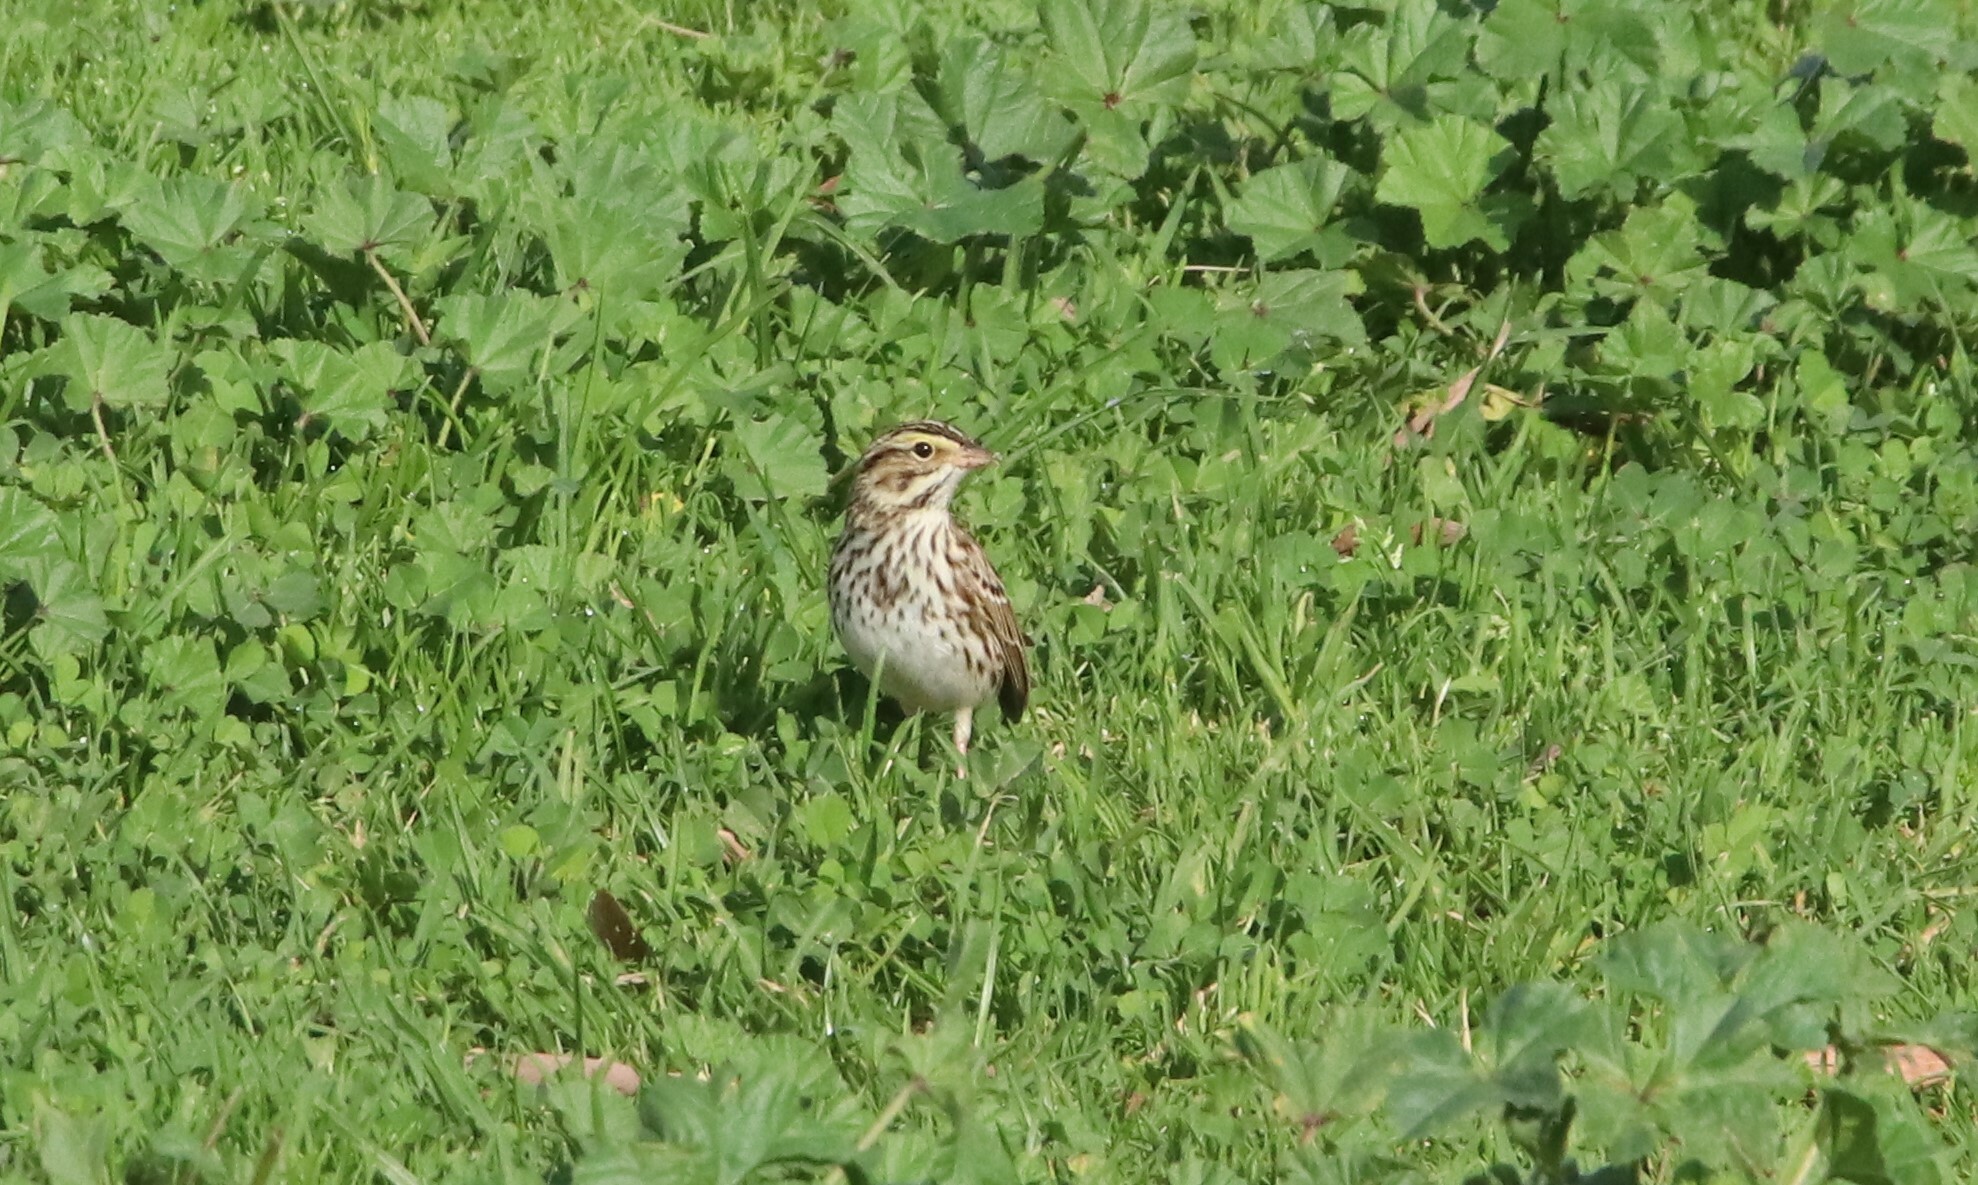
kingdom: Animalia
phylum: Chordata
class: Aves
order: Passeriformes
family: Passerellidae
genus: Passerculus
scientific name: Passerculus sandwichensis
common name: Savannah sparrow
